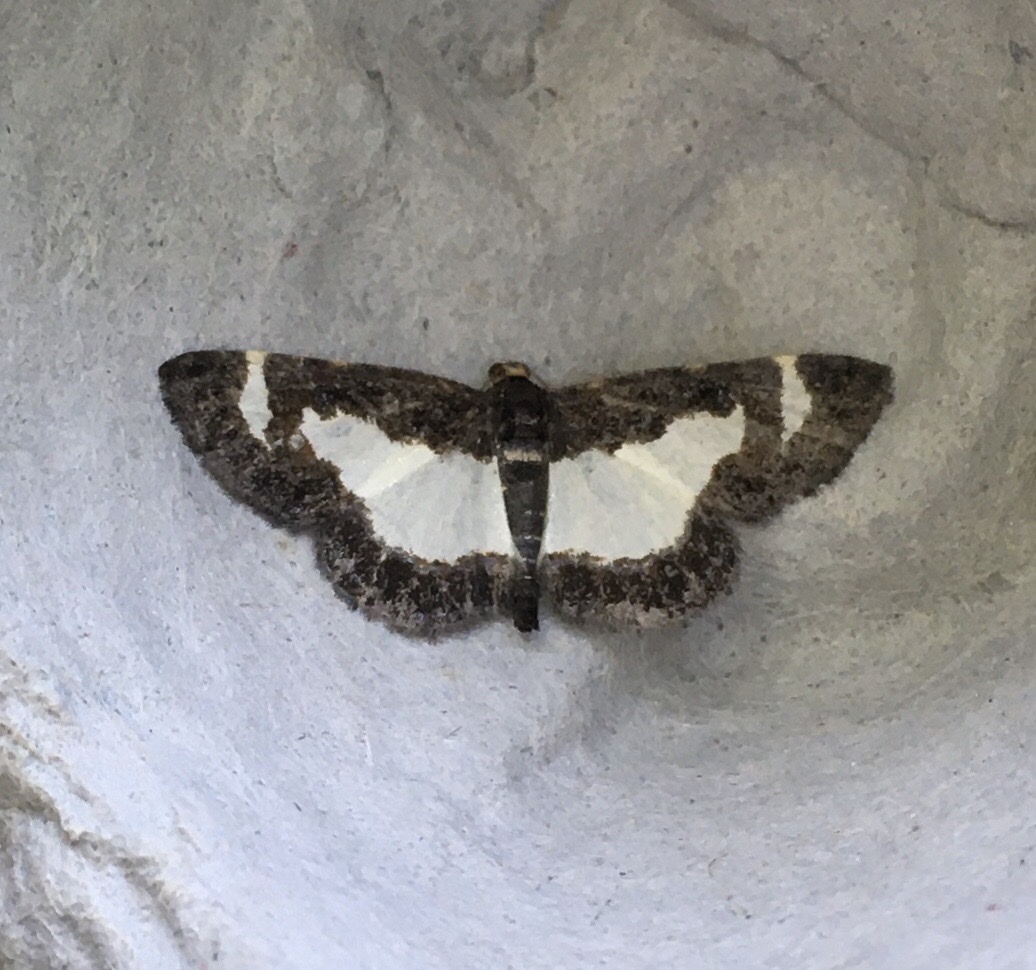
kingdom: Animalia
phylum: Arthropoda
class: Insecta
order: Lepidoptera
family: Geometridae
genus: Heliomata
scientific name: Heliomata cycladata
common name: Common spring moth
